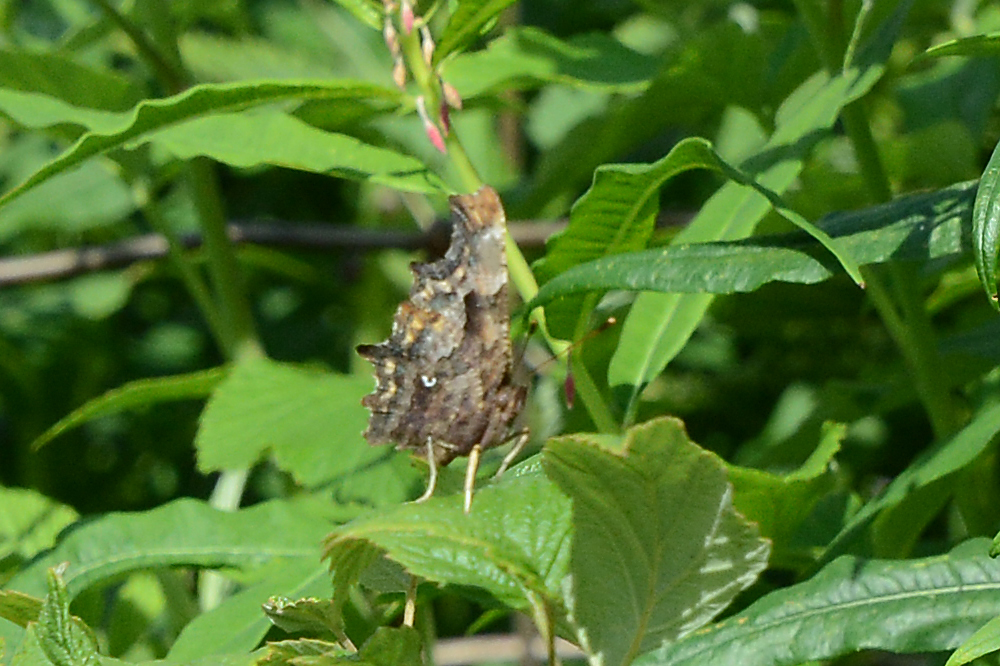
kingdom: Animalia
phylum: Arthropoda
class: Insecta
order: Lepidoptera
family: Nymphalidae
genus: Polygonia
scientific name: Polygonia c-album
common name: Comma
